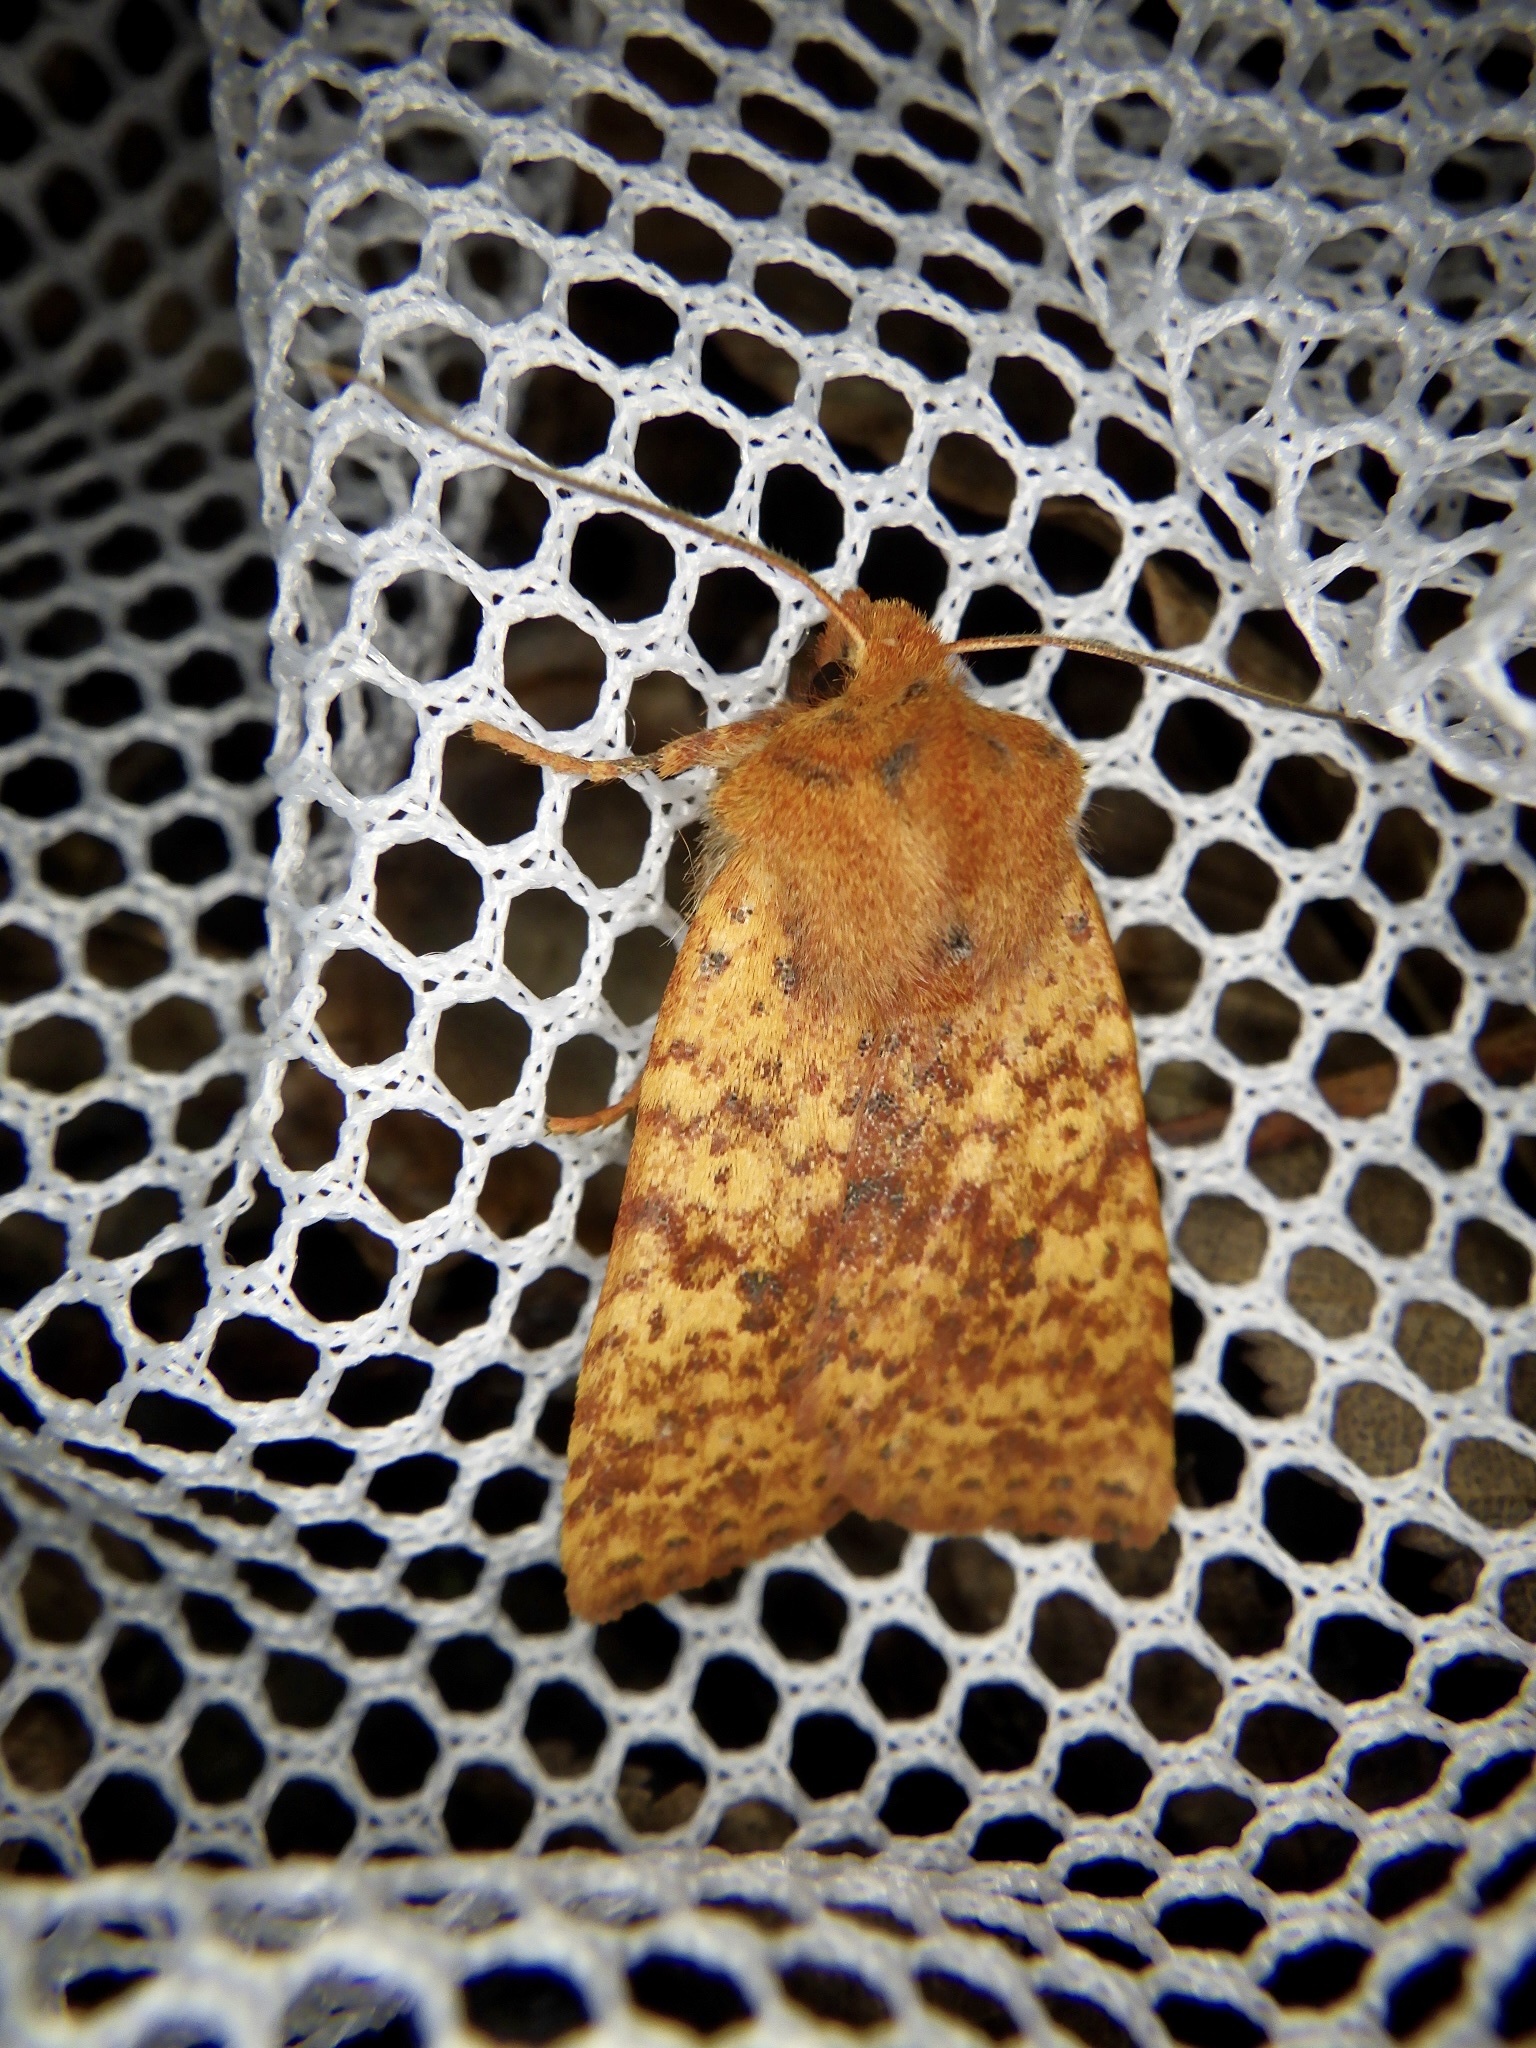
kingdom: Animalia
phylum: Arthropoda
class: Insecta
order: Lepidoptera
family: Noctuidae
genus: Conistra
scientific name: Conistra castaneofasciata
